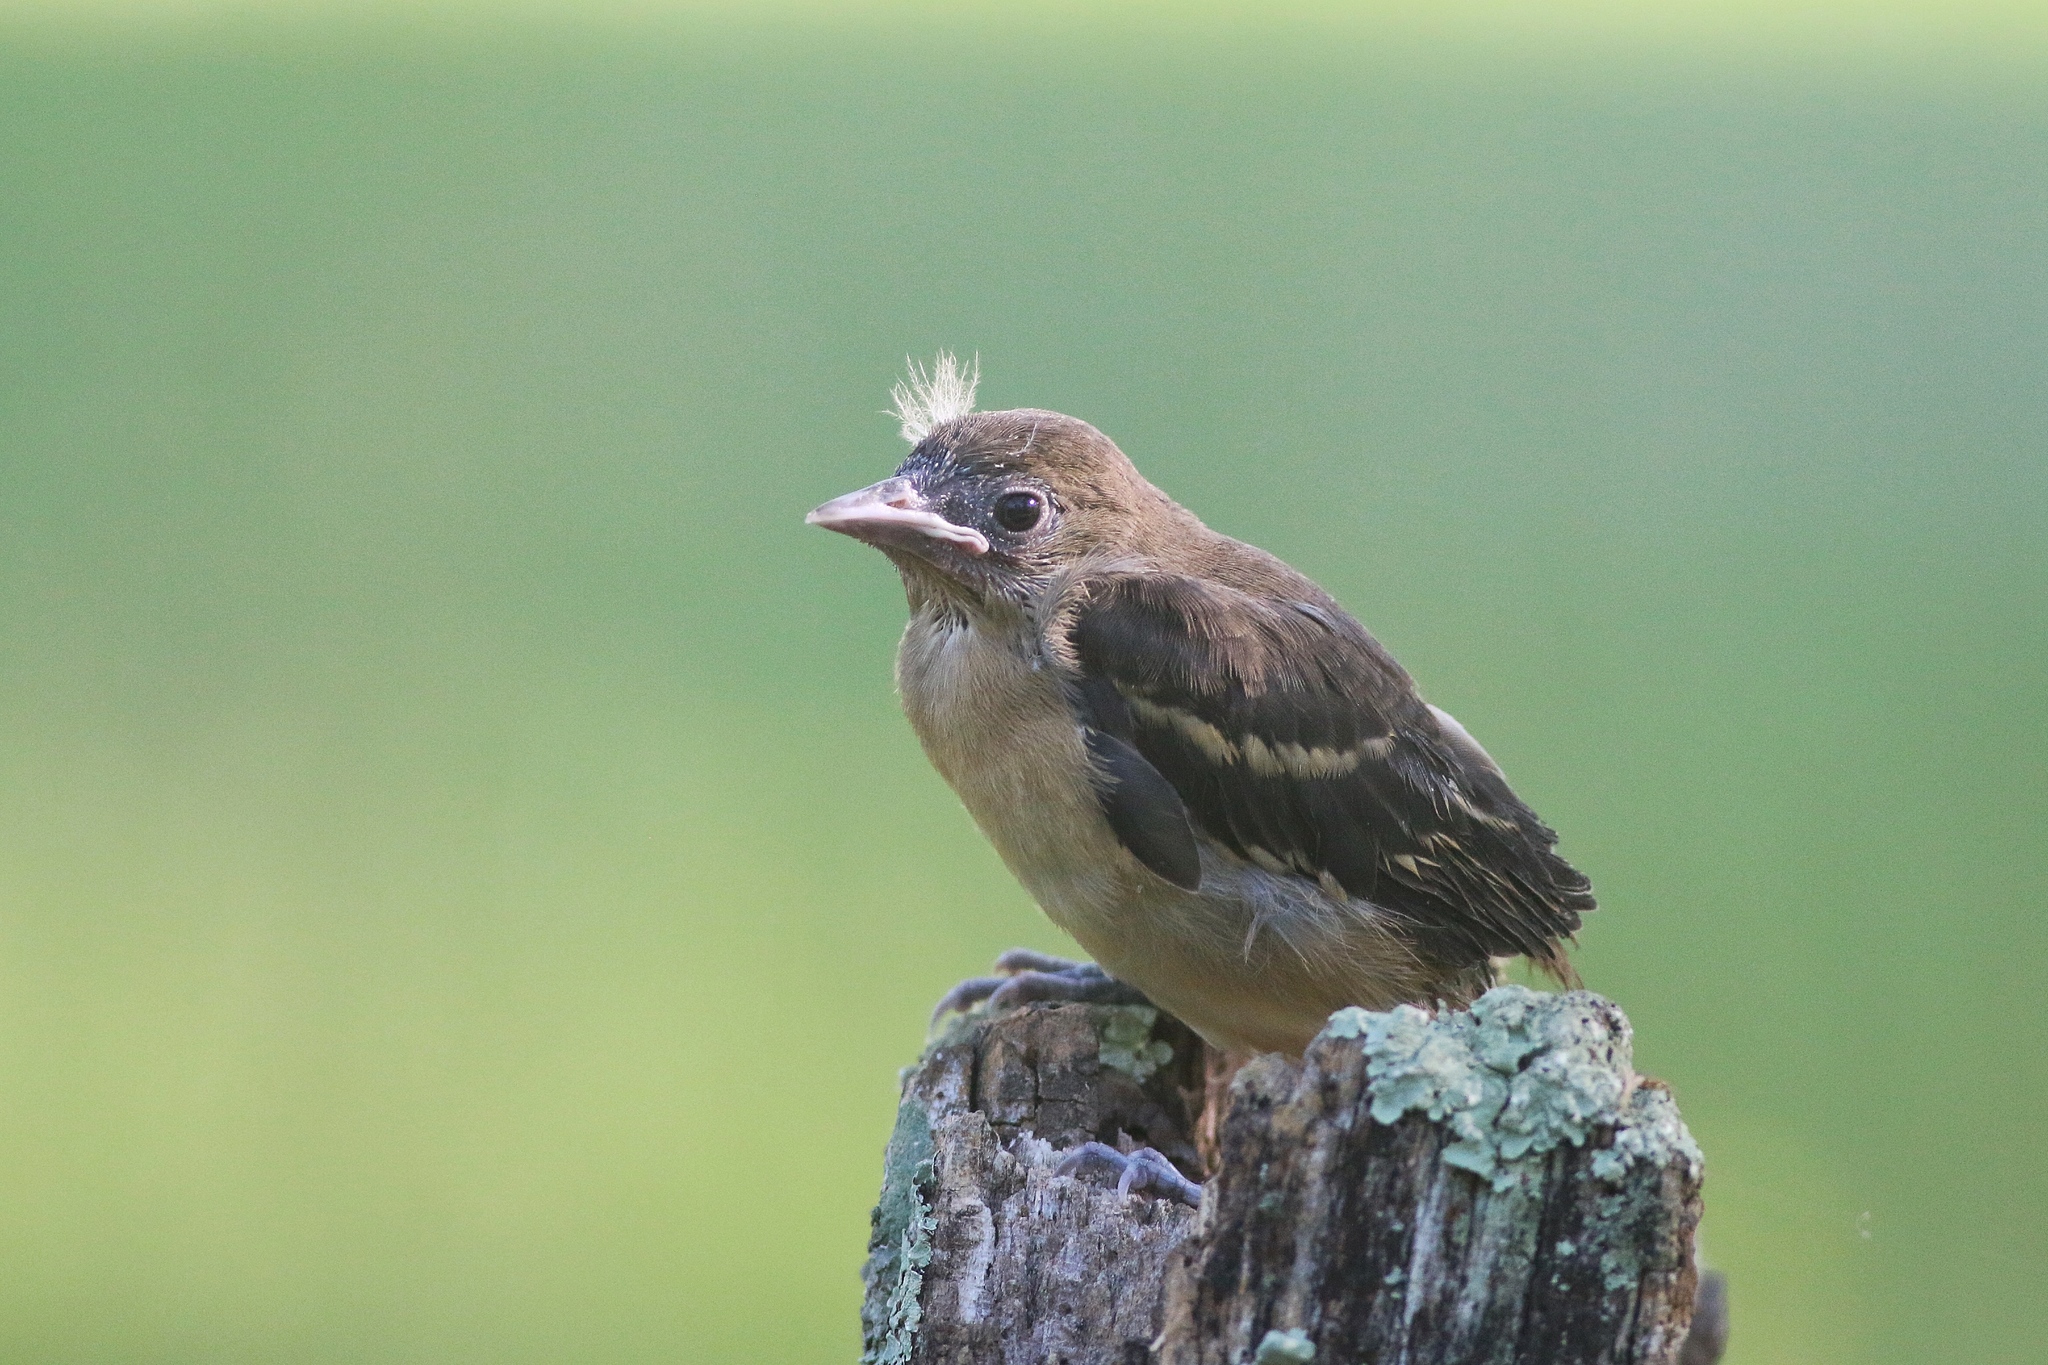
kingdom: Animalia
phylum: Chordata
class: Aves
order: Passeriformes
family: Icteridae
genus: Icterus
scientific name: Icterus galbula
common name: Baltimore oriole
